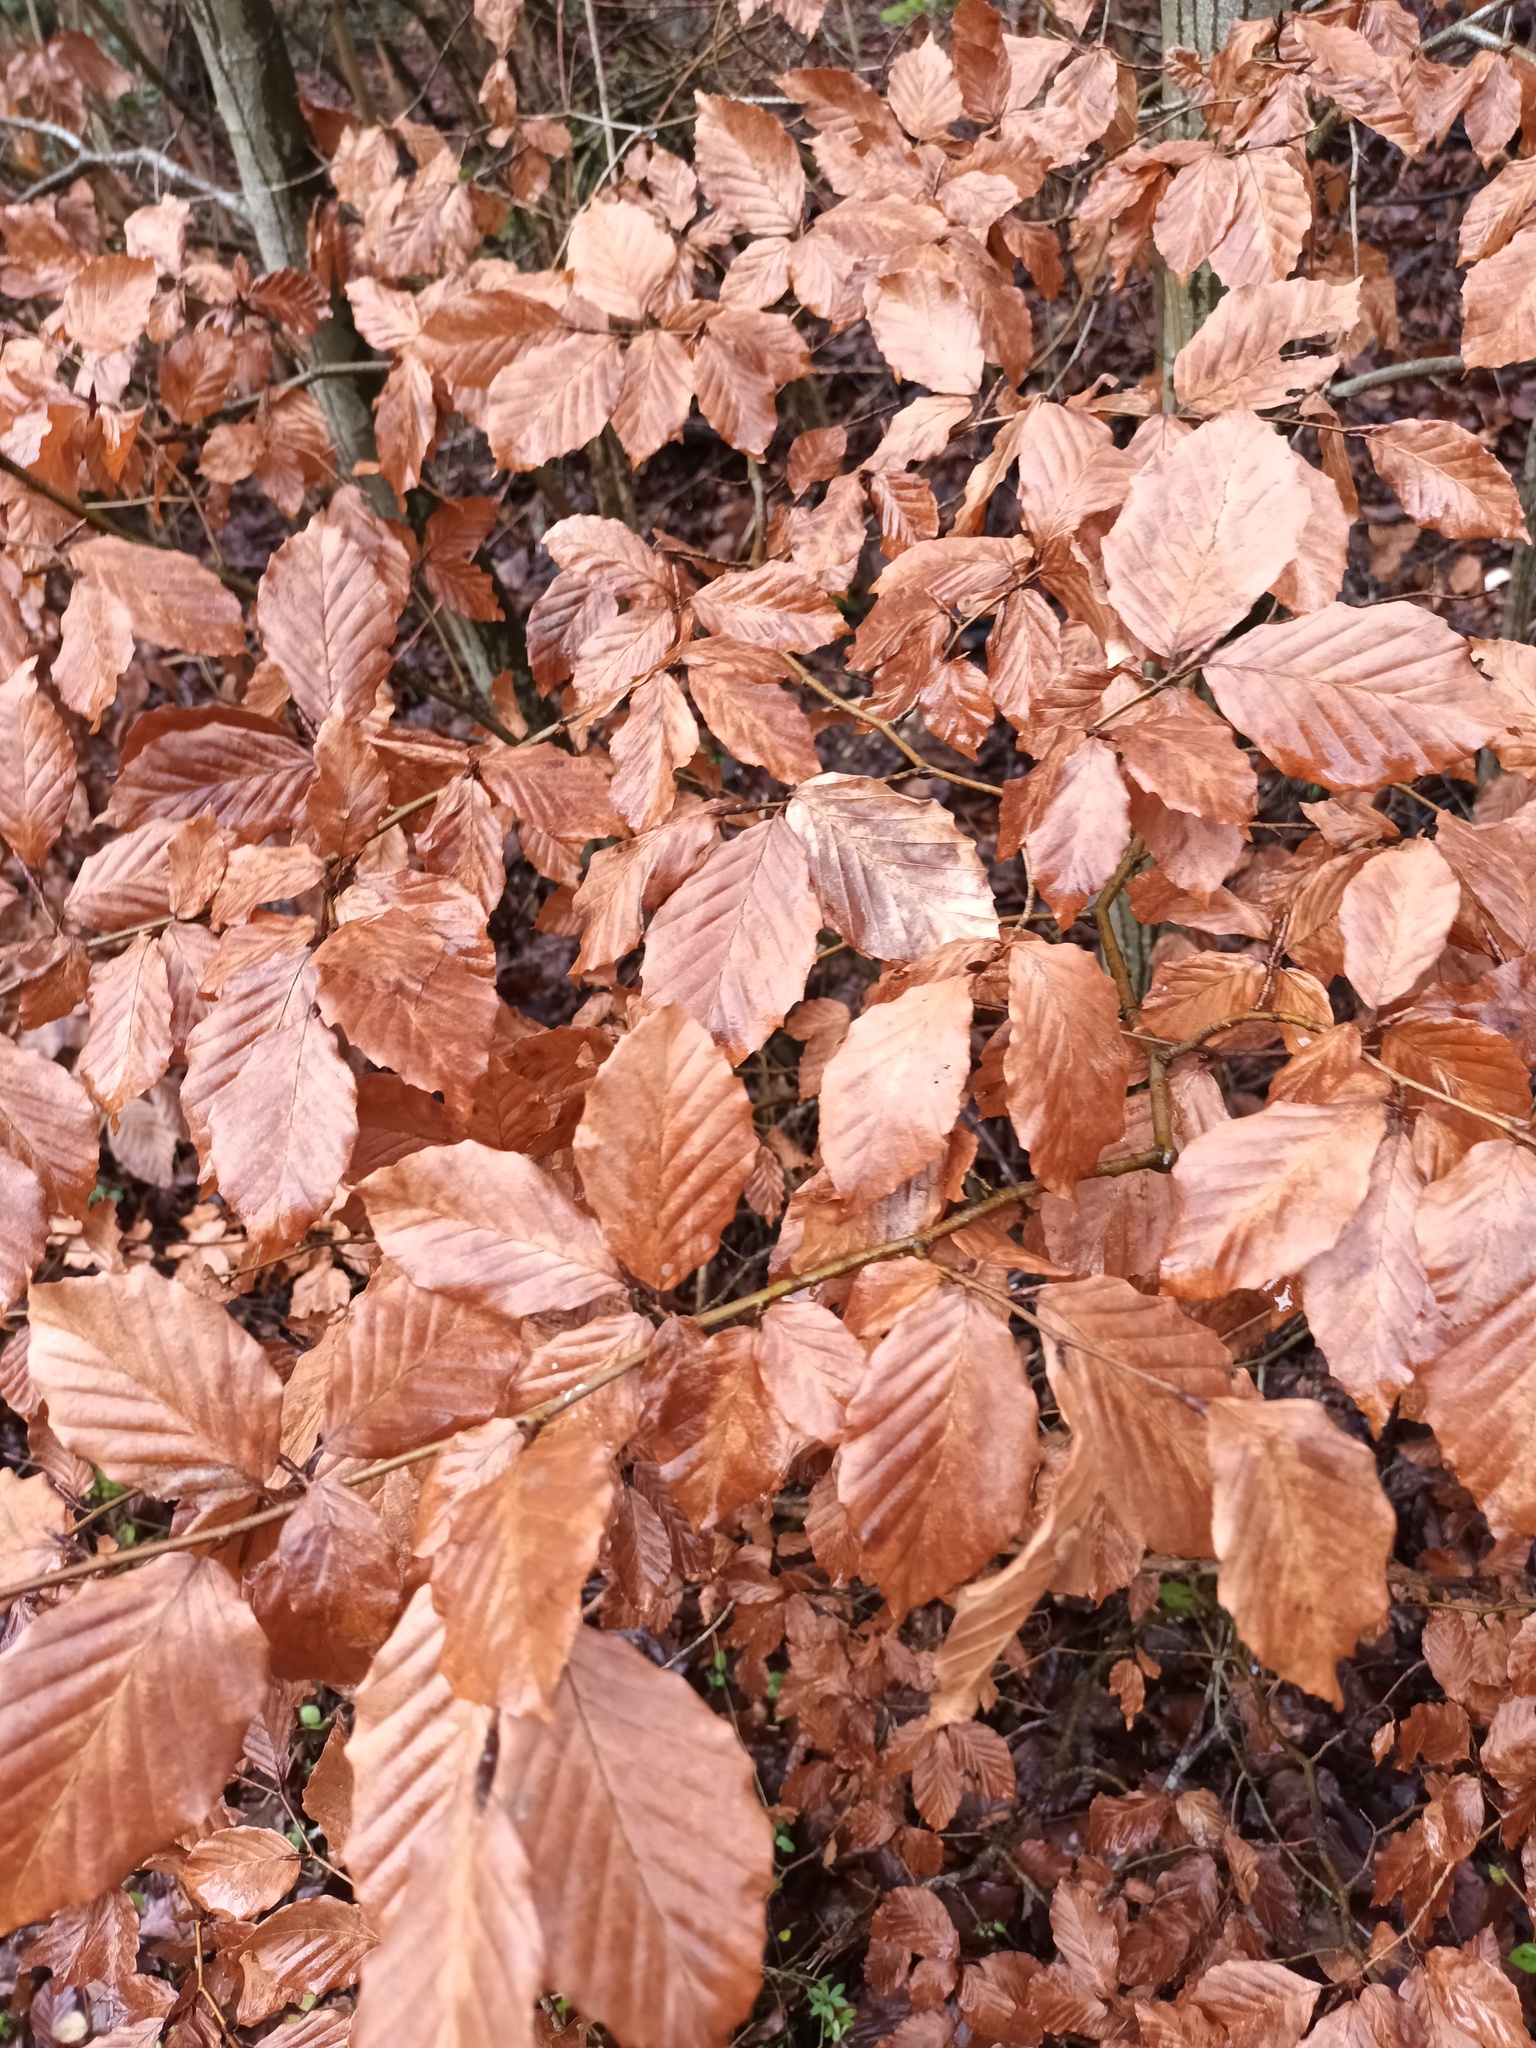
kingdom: Plantae
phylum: Tracheophyta
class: Magnoliopsida
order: Fagales
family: Fagaceae
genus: Fagus
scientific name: Fagus sylvatica
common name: Beech
